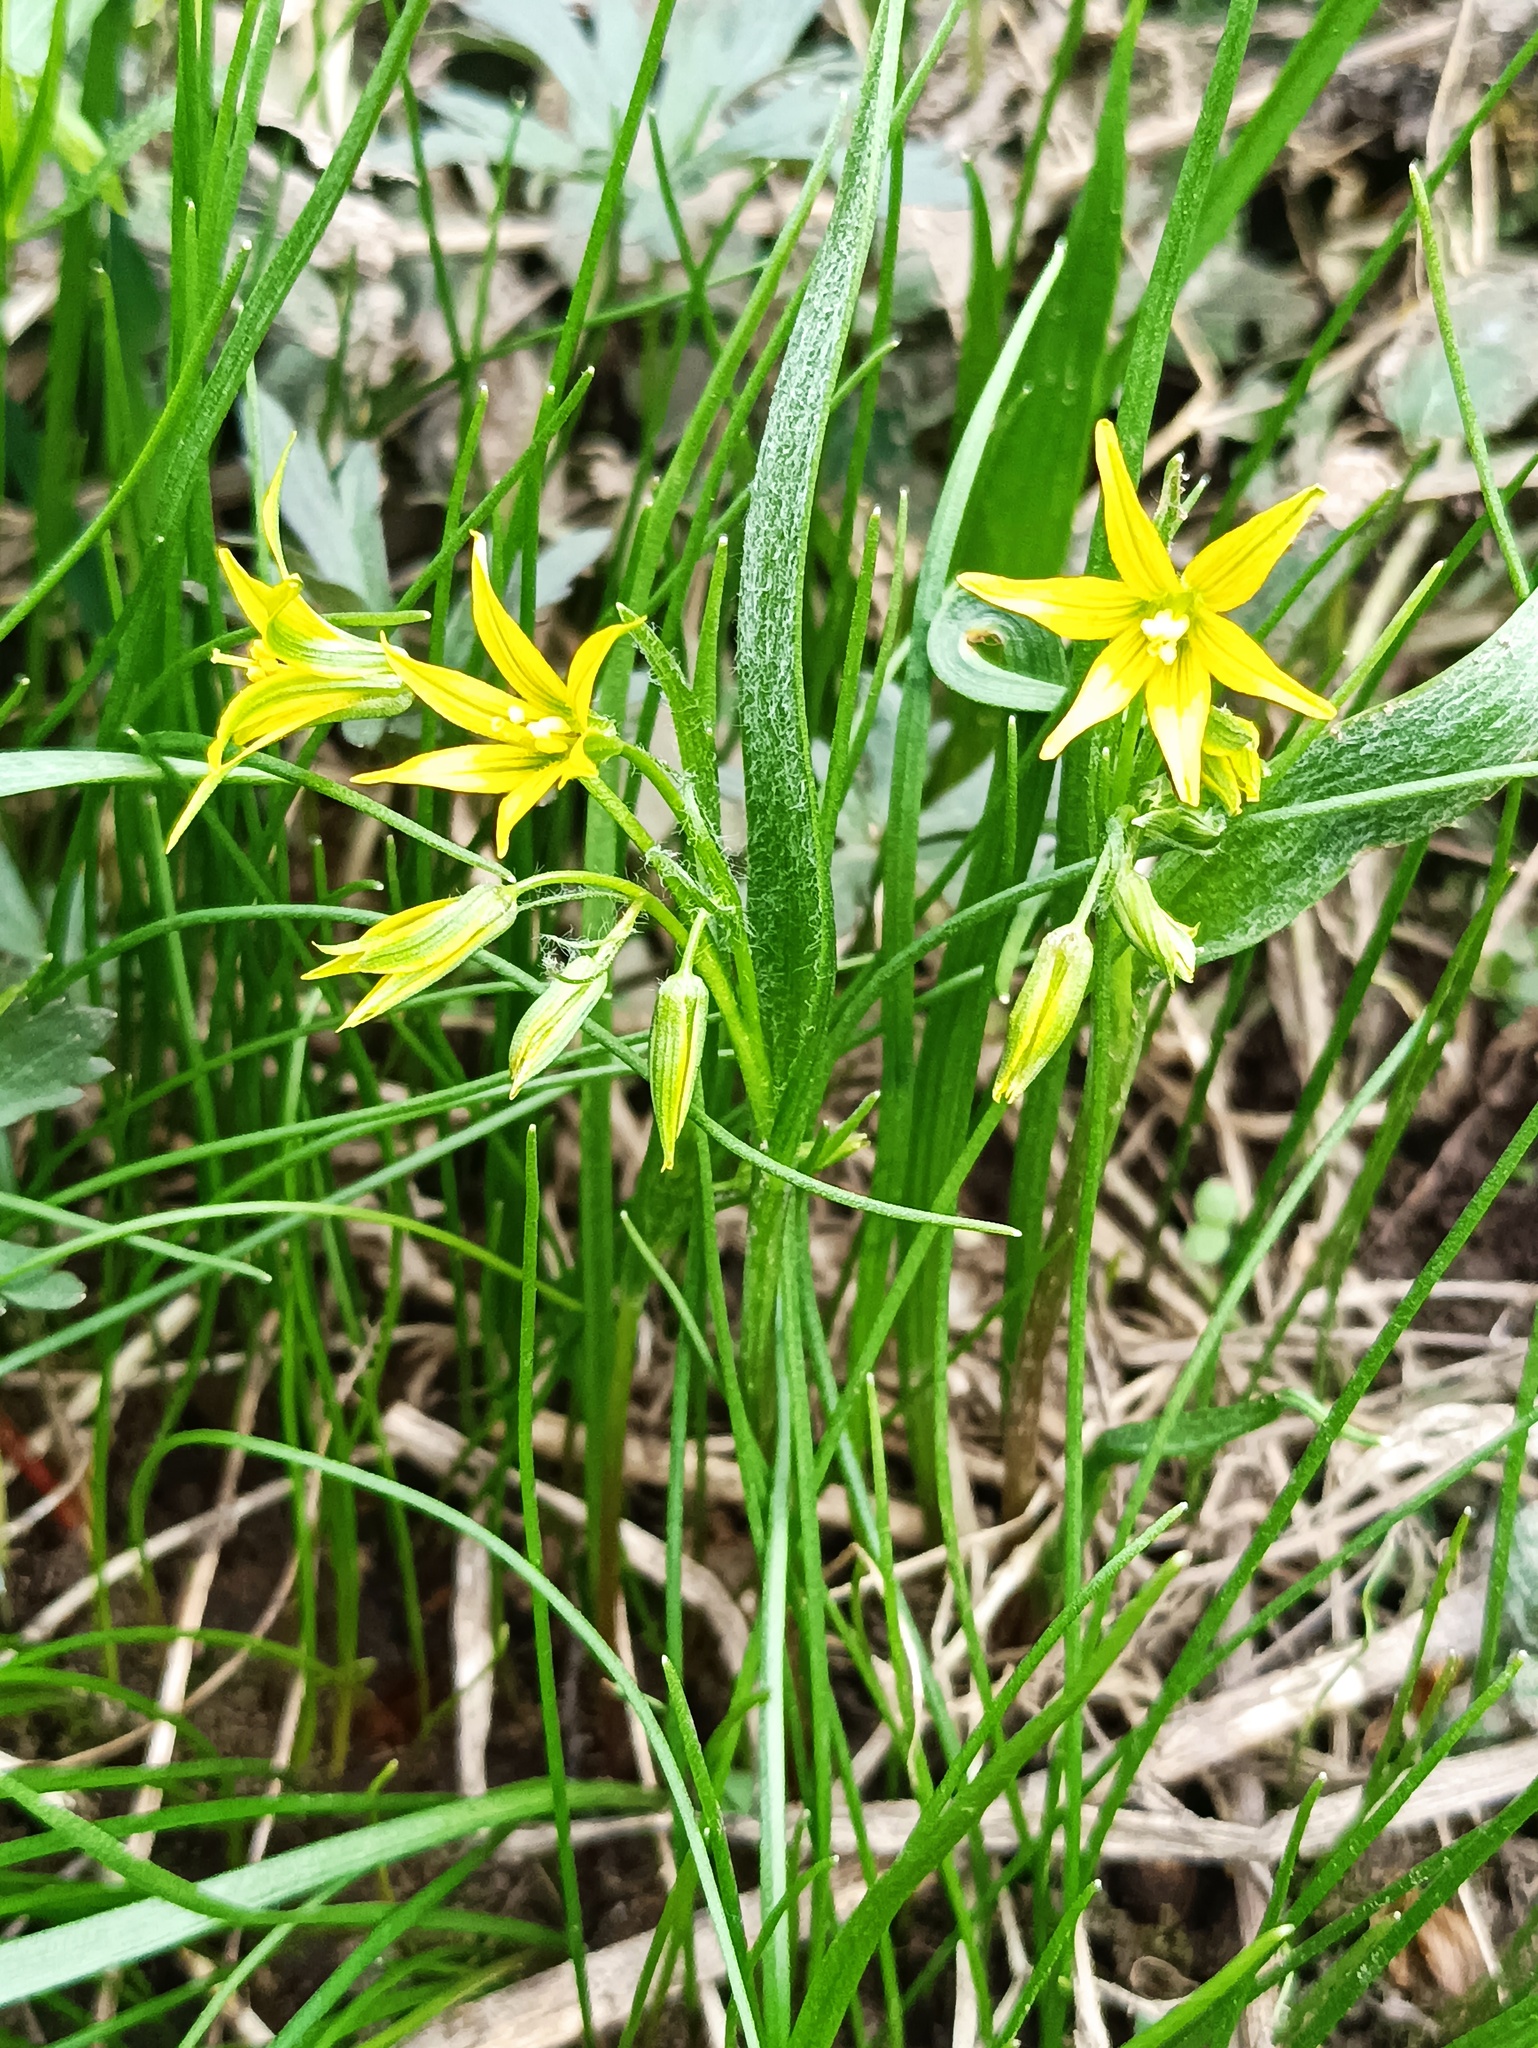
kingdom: Plantae
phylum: Tracheophyta
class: Liliopsida
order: Liliales
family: Liliaceae
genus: Gagea
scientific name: Gagea minima
